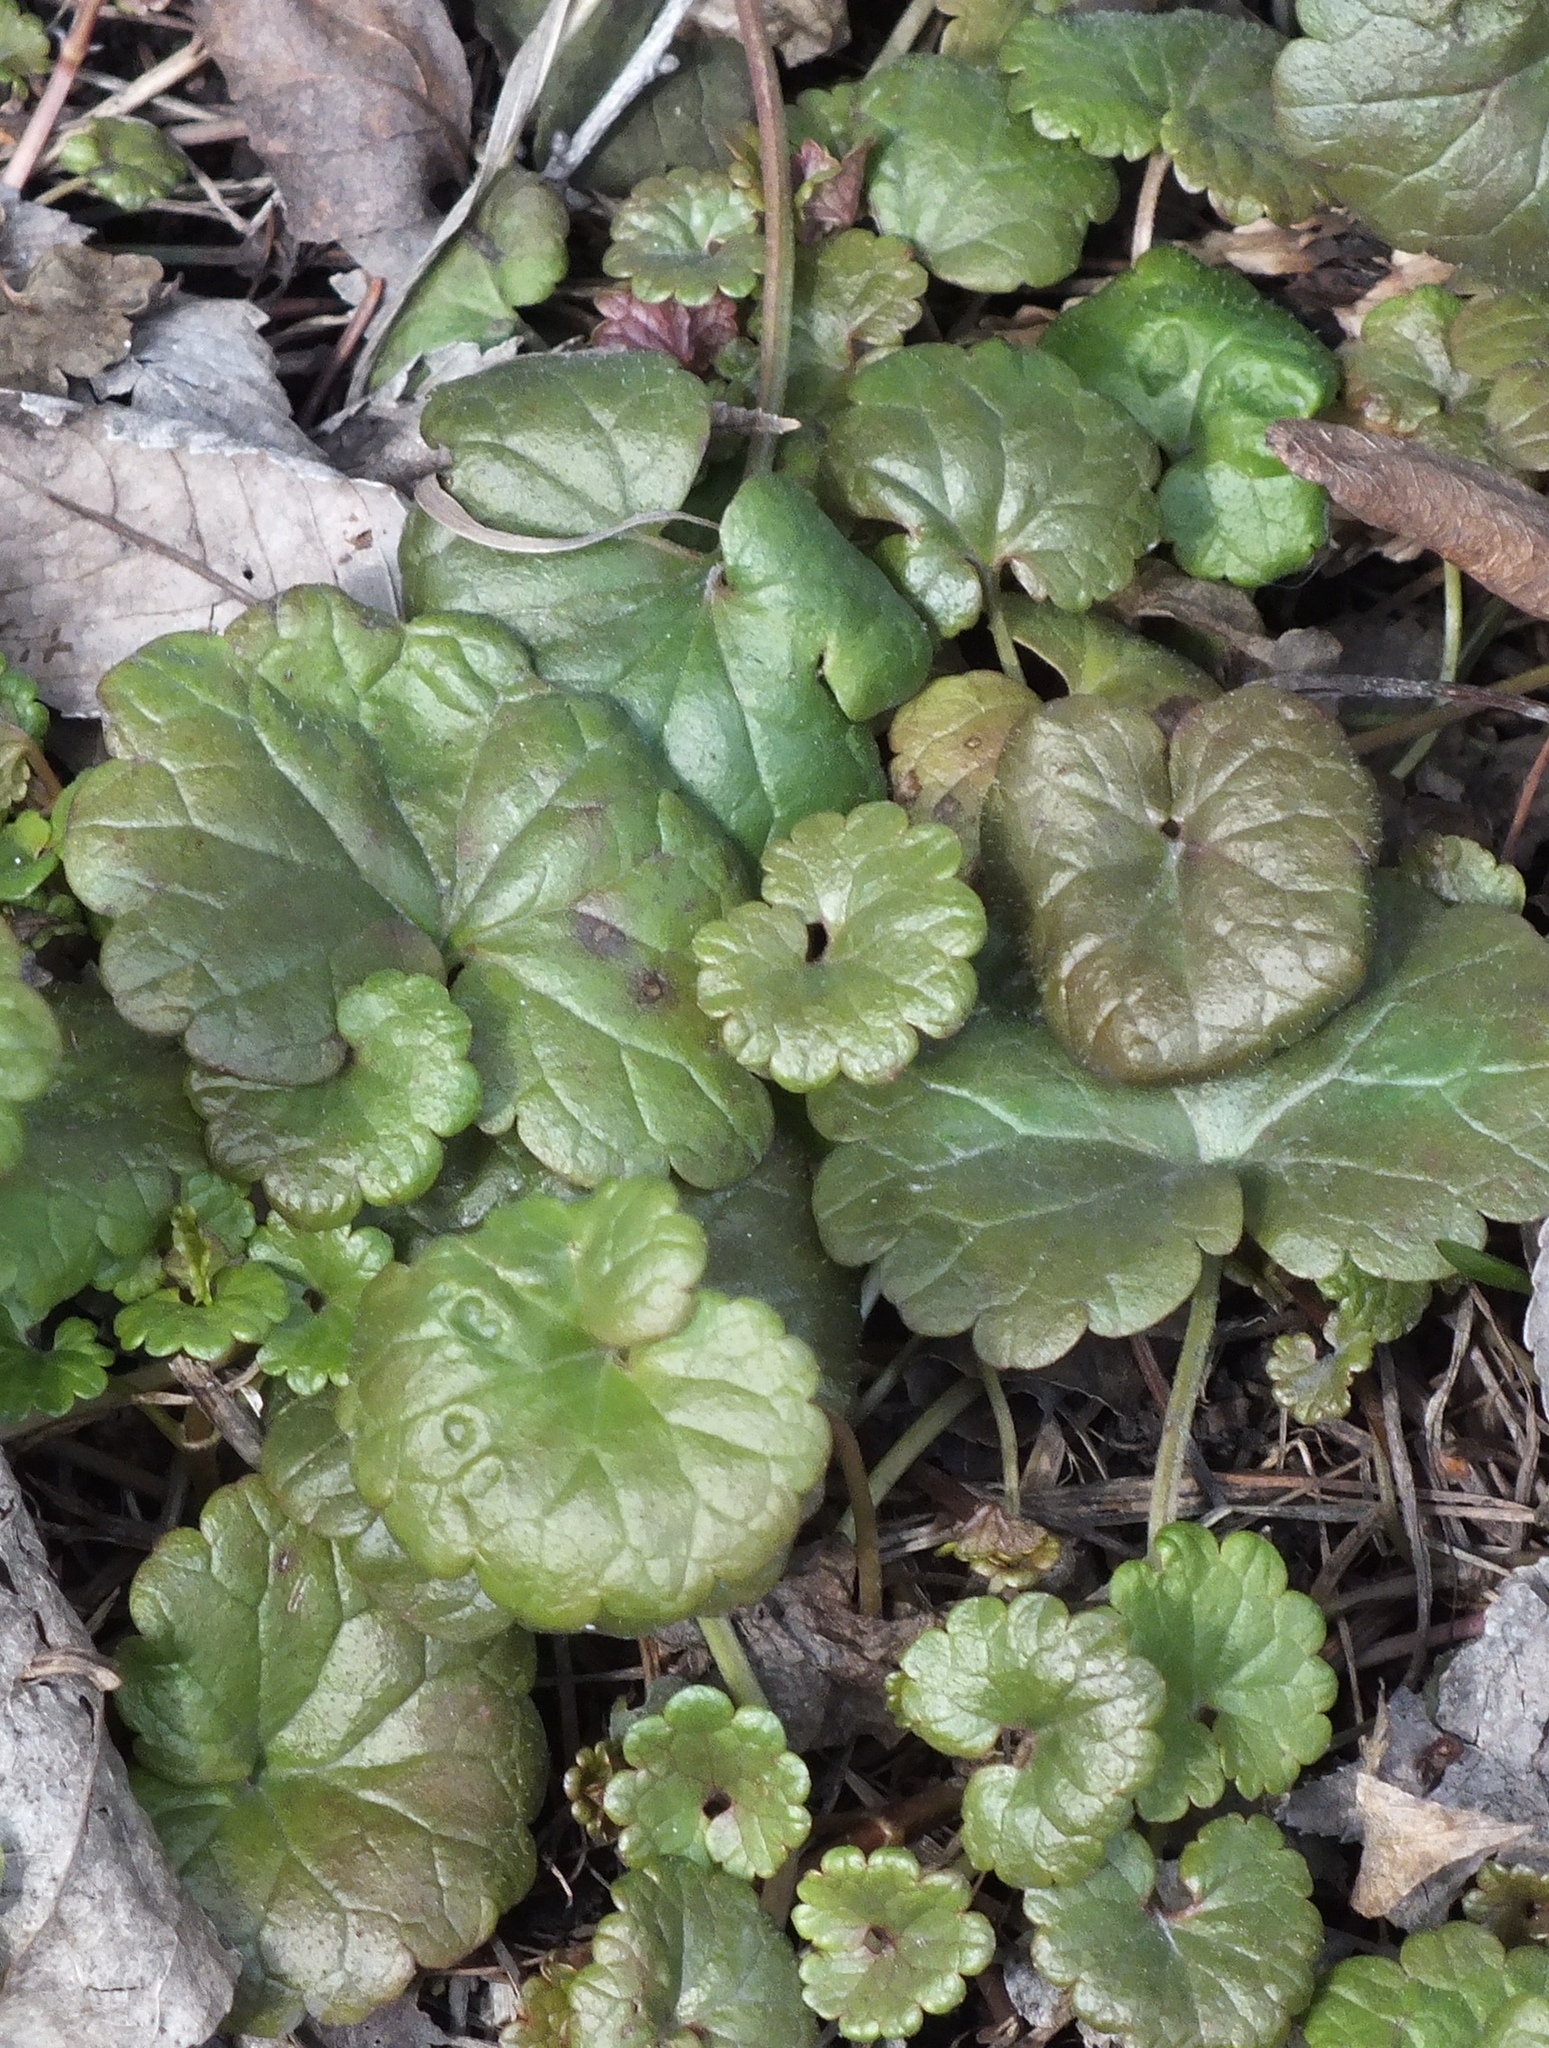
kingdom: Plantae
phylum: Tracheophyta
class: Magnoliopsida
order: Lamiales
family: Lamiaceae
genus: Glechoma
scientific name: Glechoma hederacea
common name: Ground ivy
